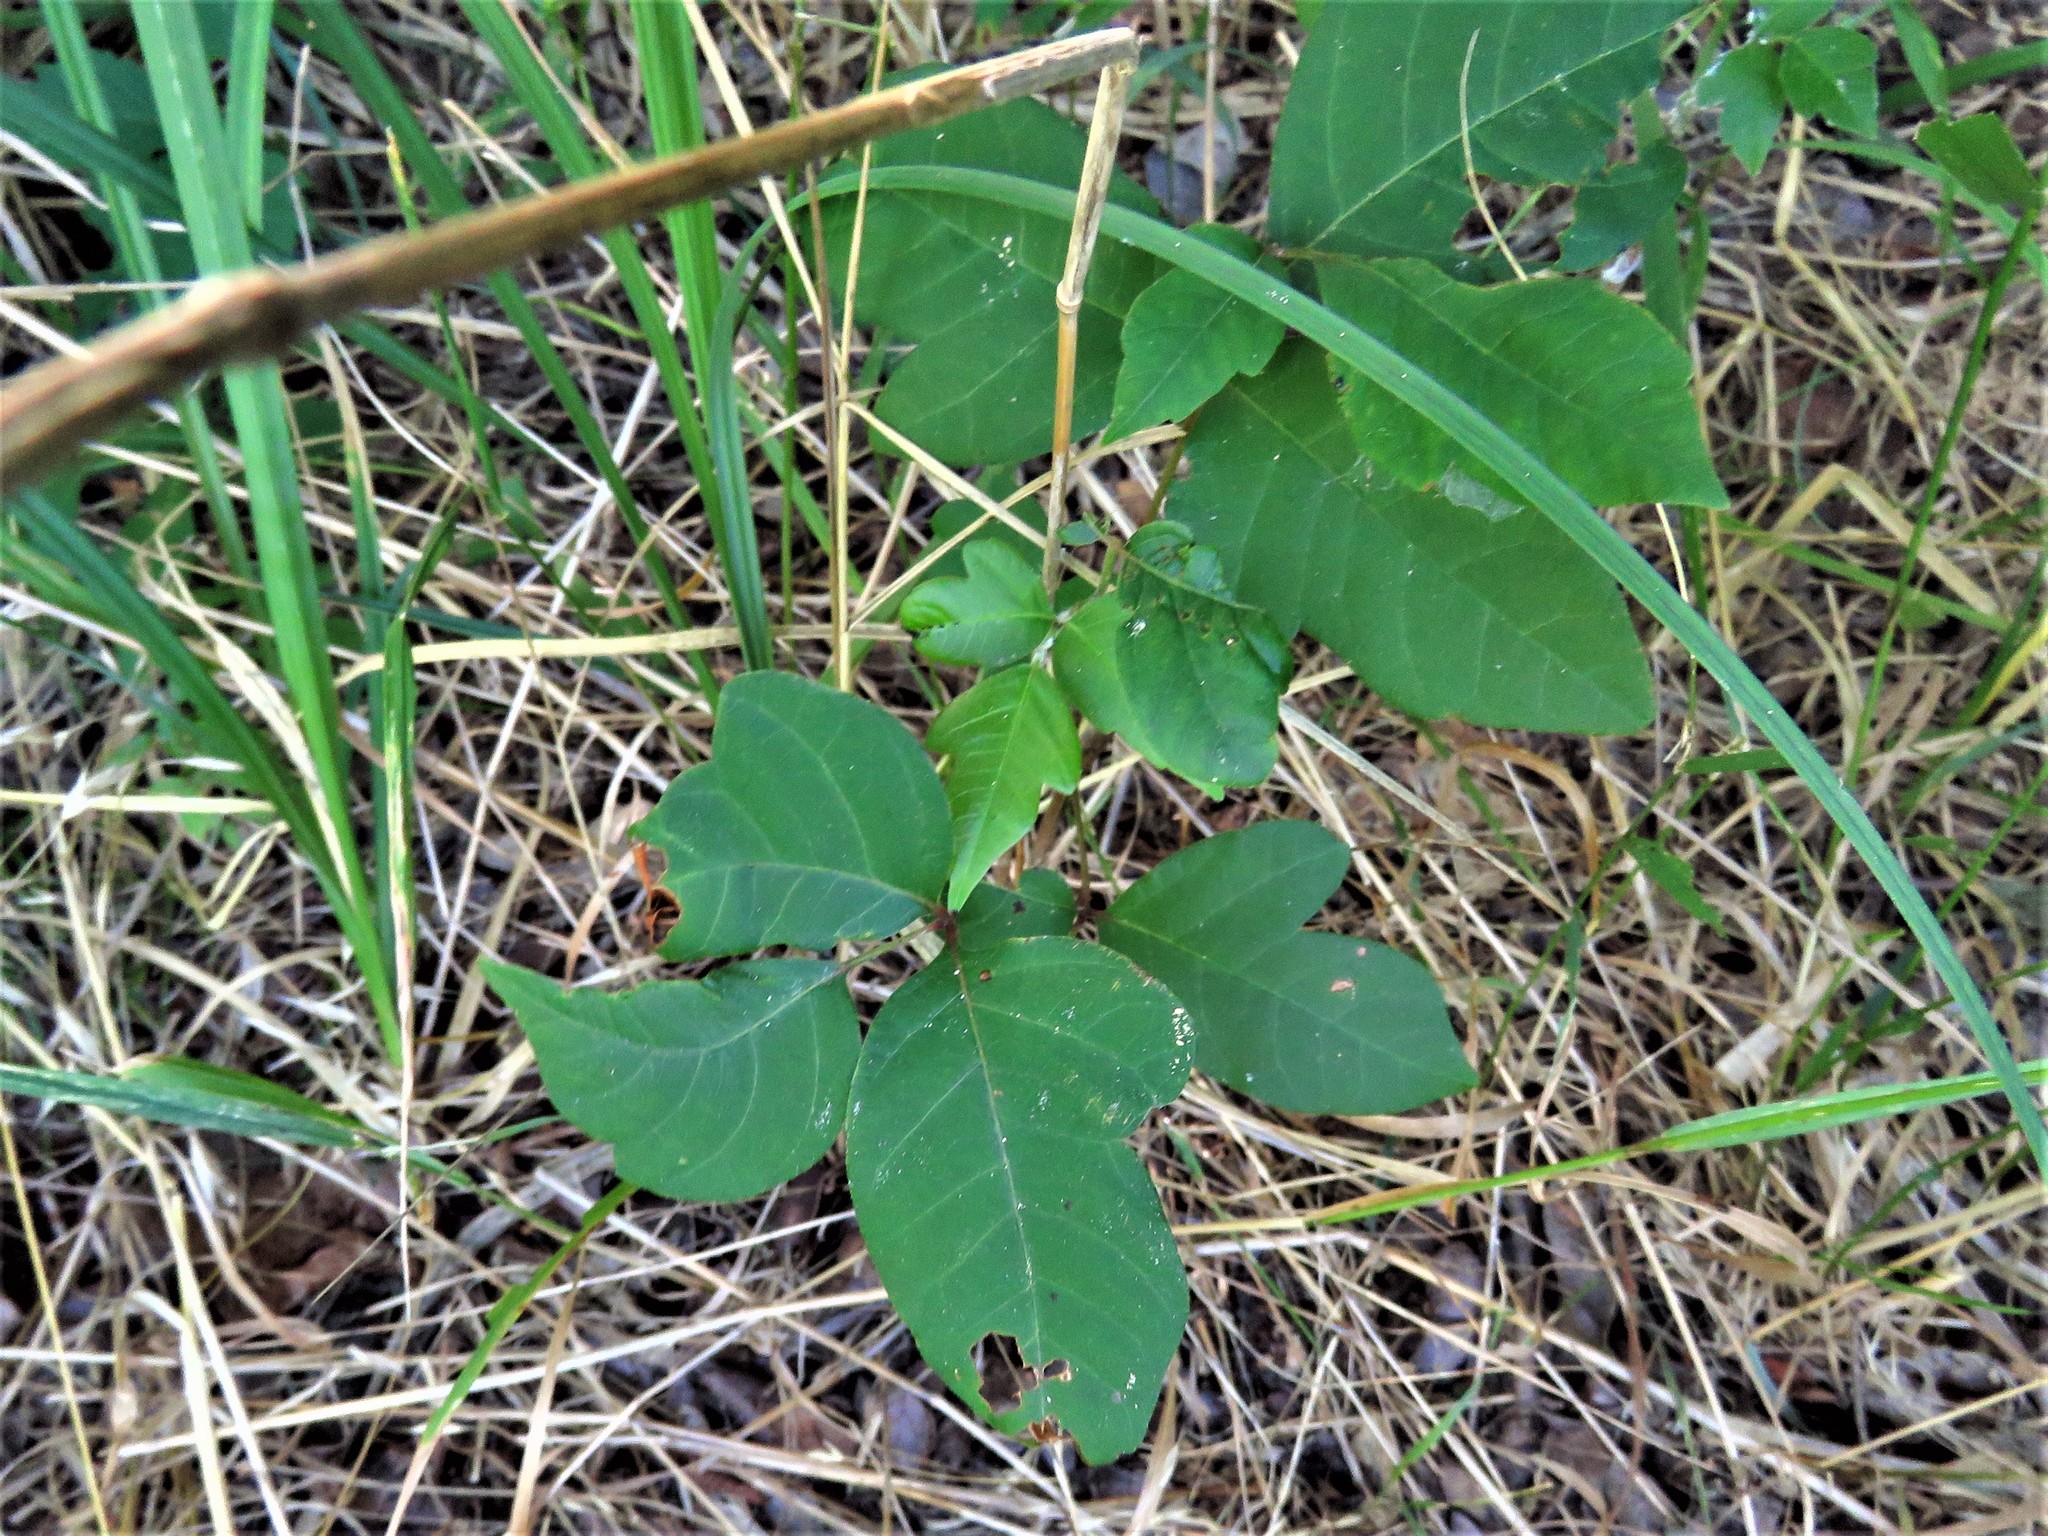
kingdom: Plantae
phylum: Tracheophyta
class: Magnoliopsida
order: Sapindales
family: Anacardiaceae
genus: Toxicodendron
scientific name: Toxicodendron radicans
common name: Poison ivy
